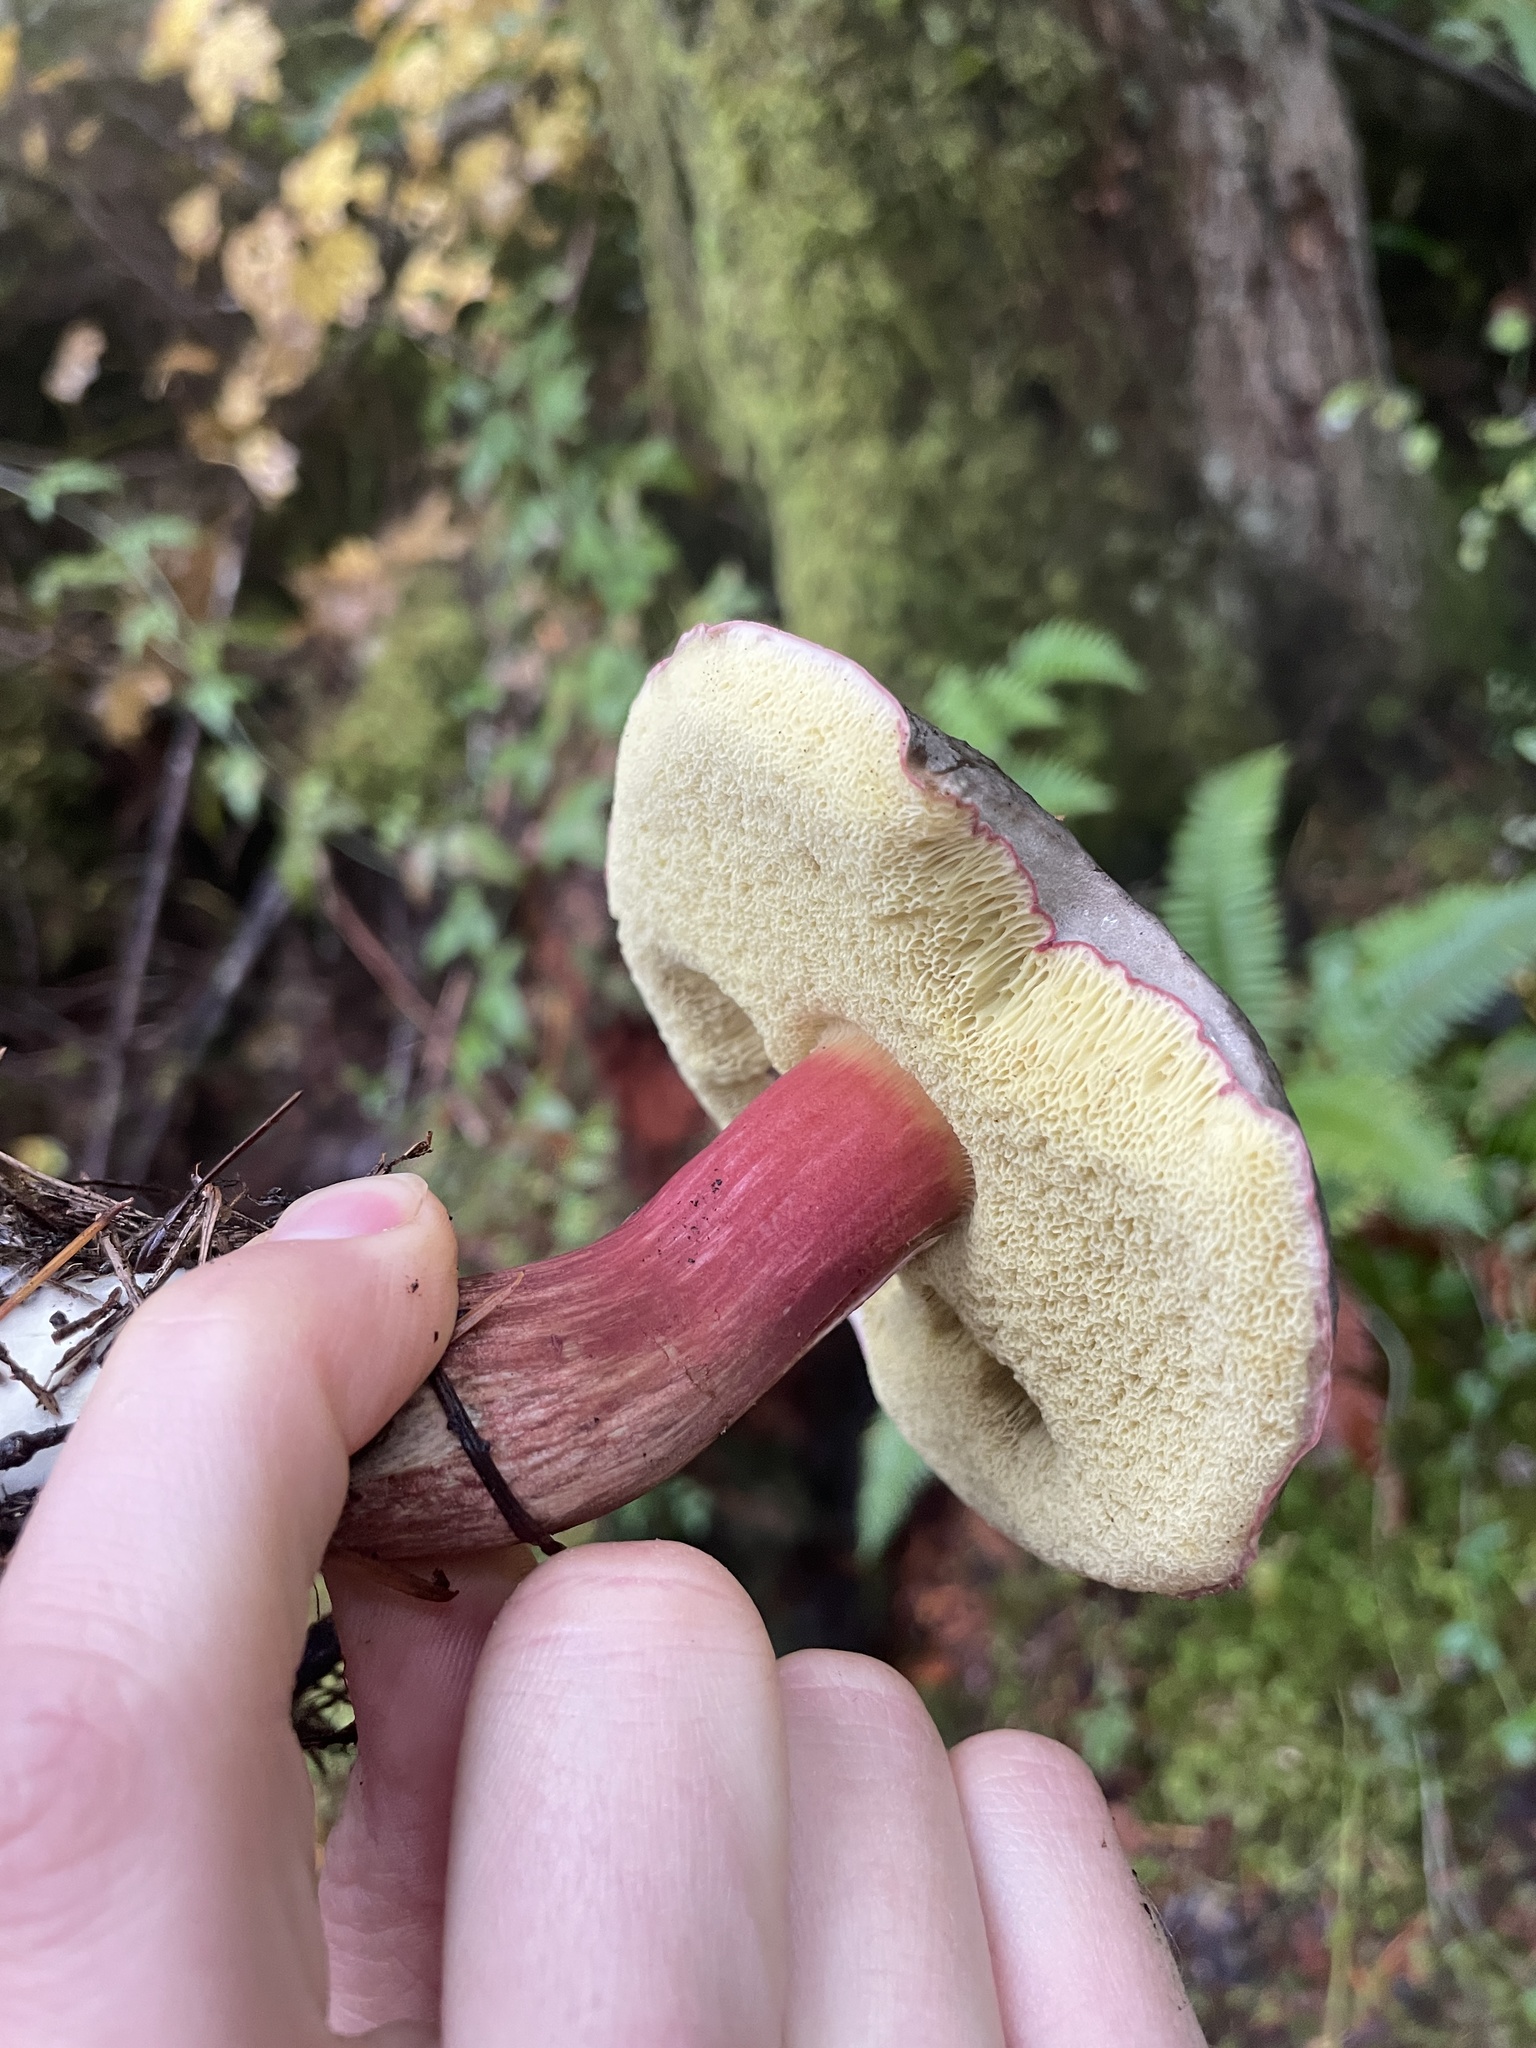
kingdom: Fungi
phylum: Basidiomycota
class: Agaricomycetes
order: Boletales
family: Boletaceae
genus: Xerocomellus
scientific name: Xerocomellus atropurpureus
